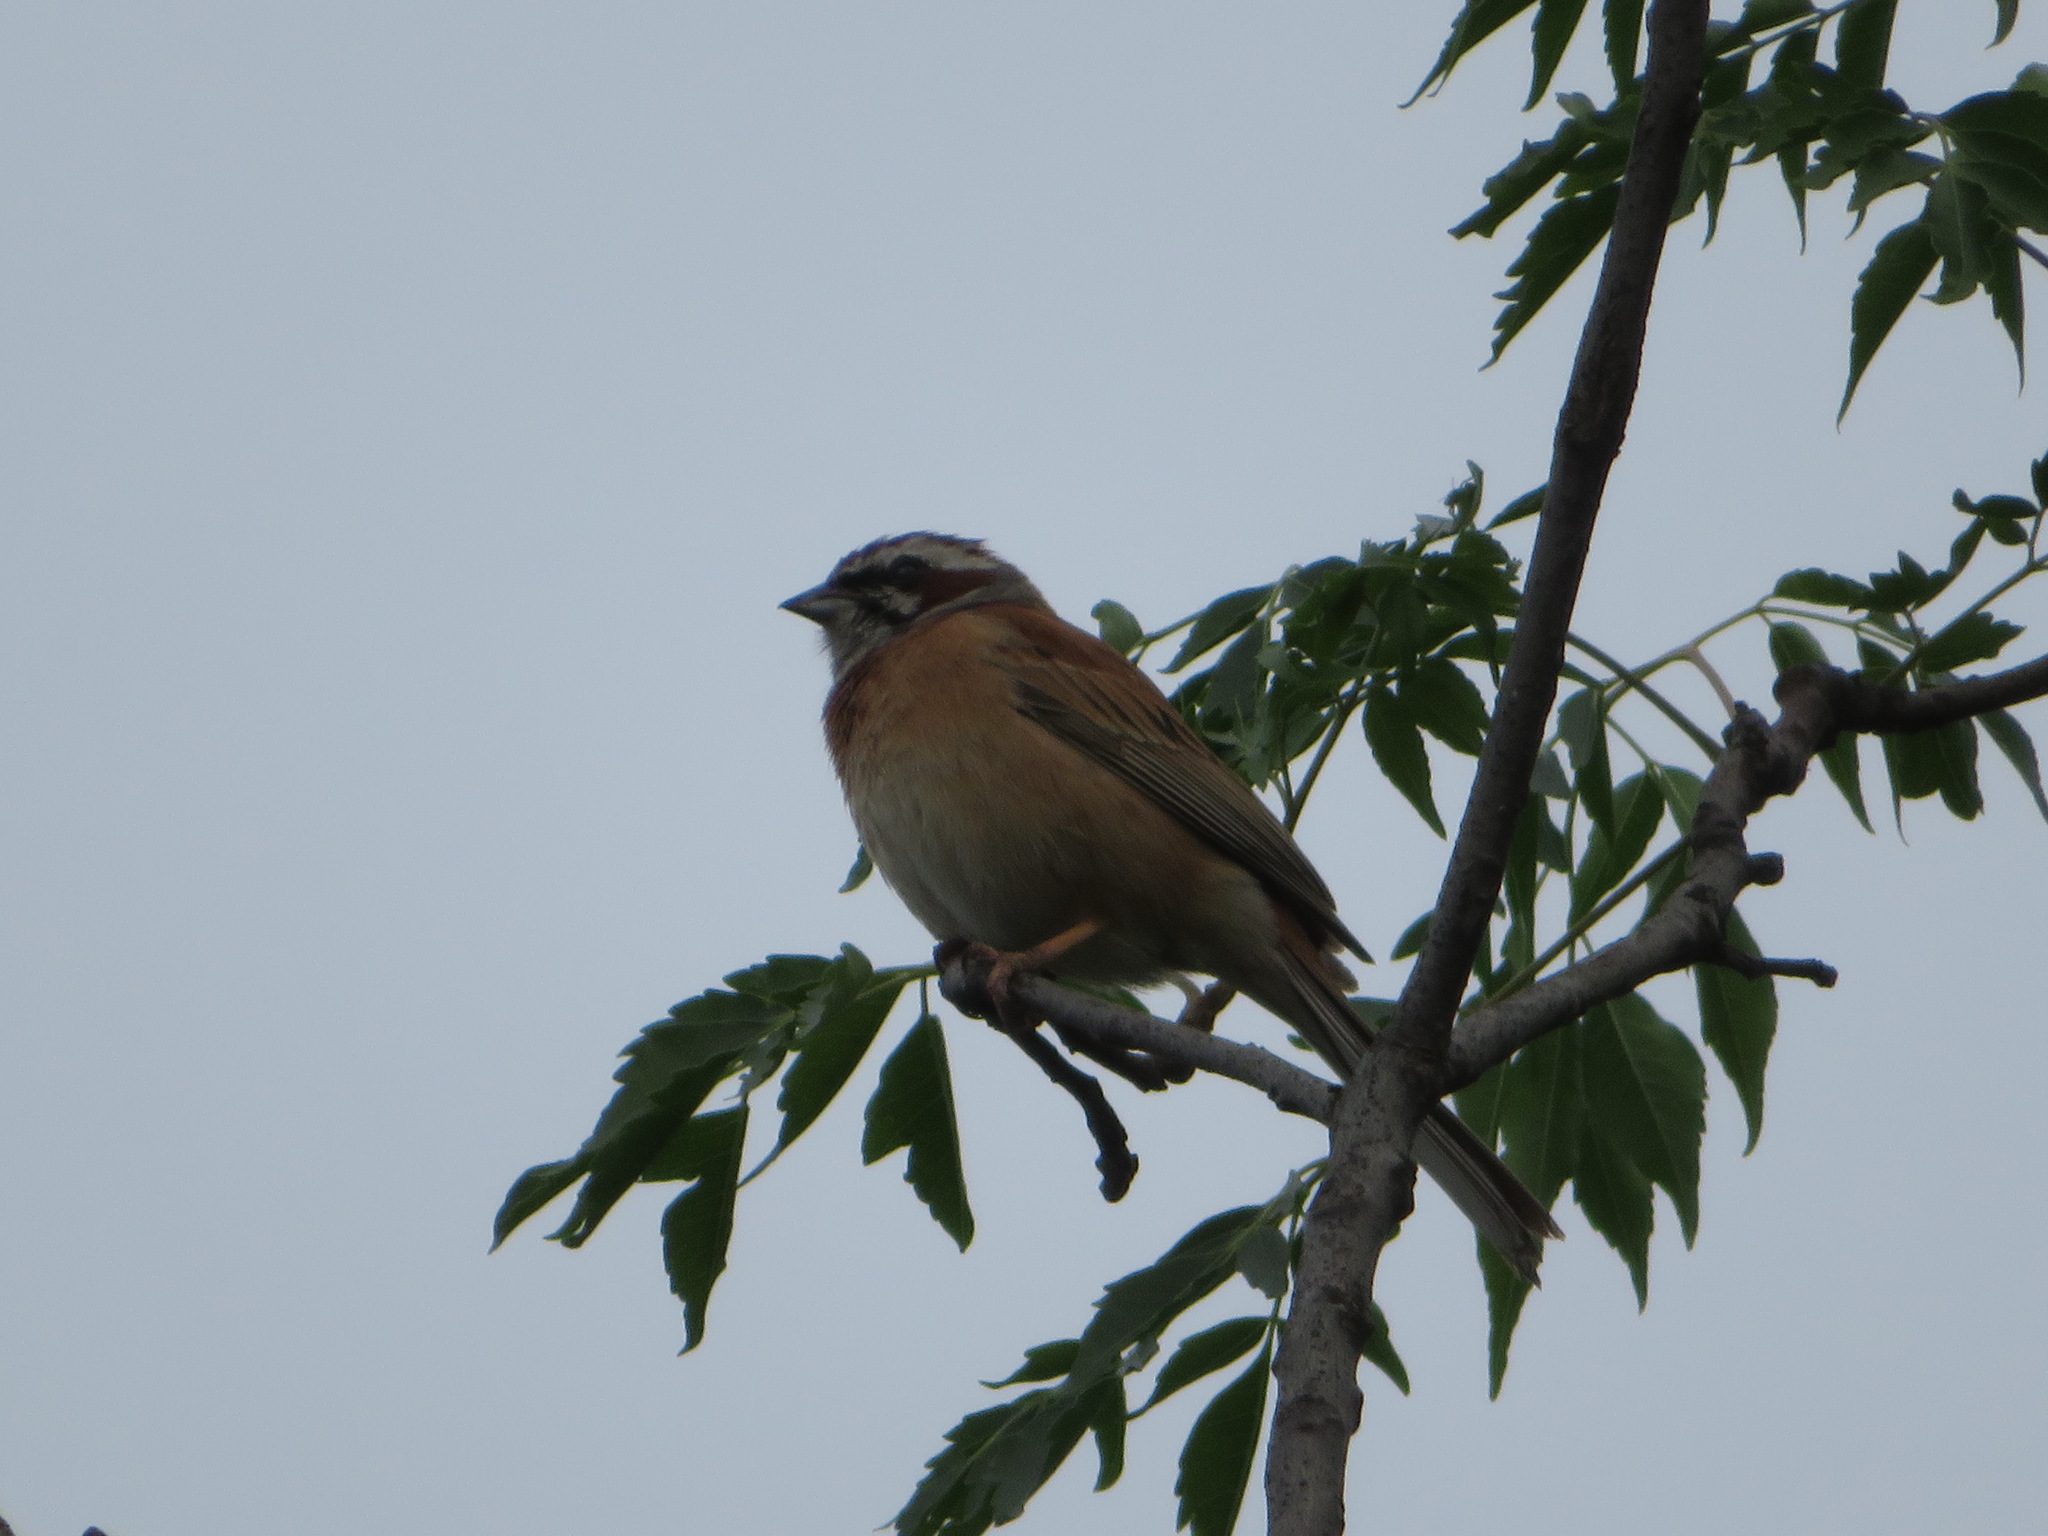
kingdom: Animalia
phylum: Chordata
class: Aves
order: Passeriformes
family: Emberizidae
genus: Emberiza
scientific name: Emberiza cioides
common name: Meadow bunting
